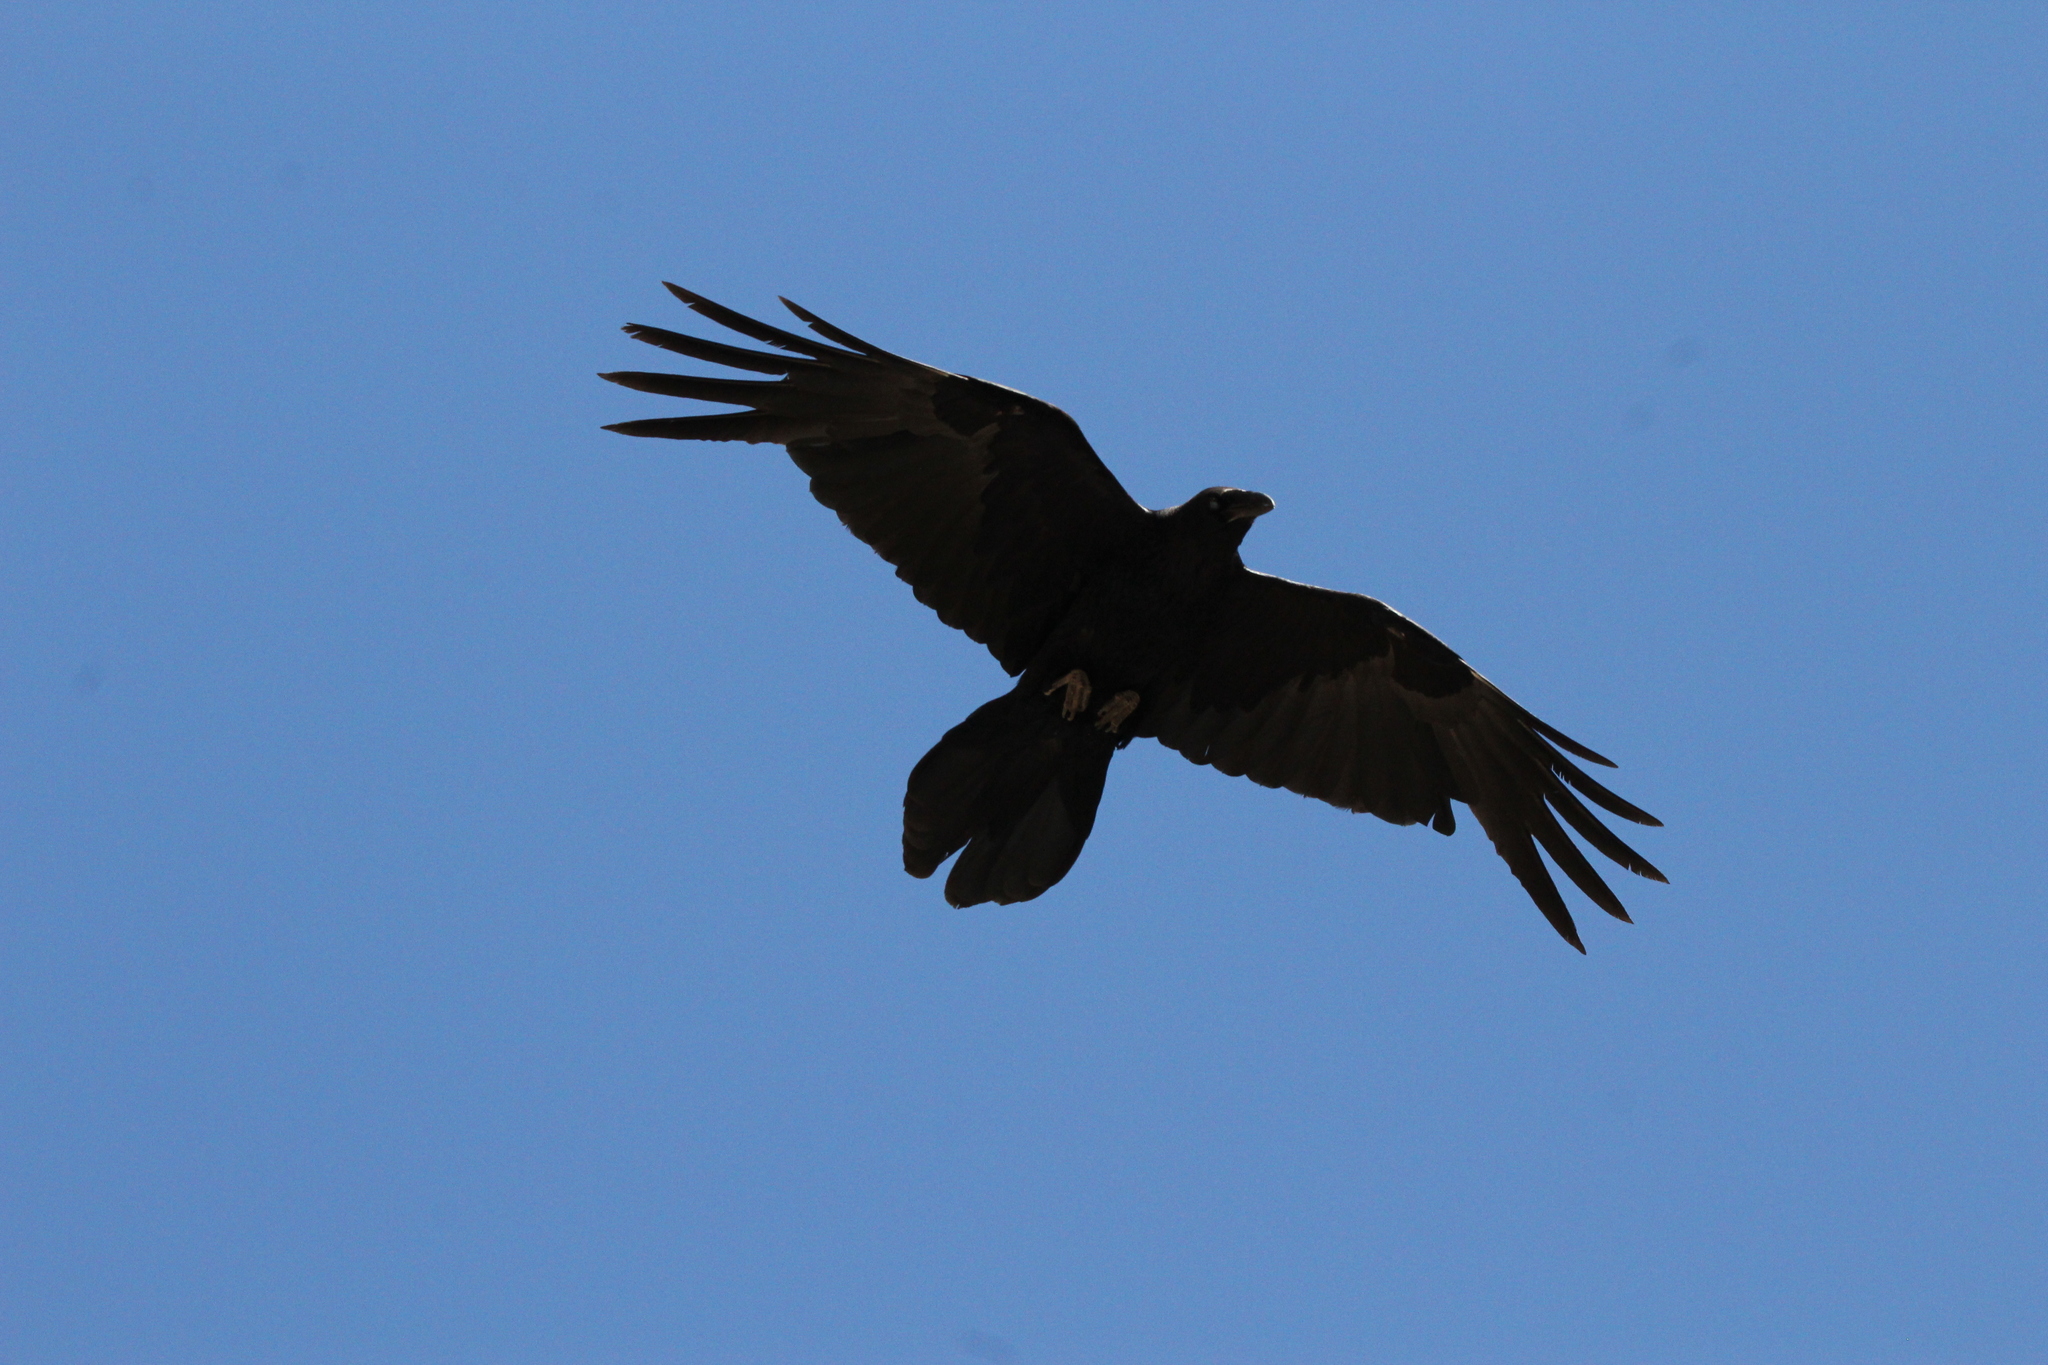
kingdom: Animalia
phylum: Chordata
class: Aves
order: Passeriformes
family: Corvidae
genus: Corvus
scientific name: Corvus corax
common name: Common raven
